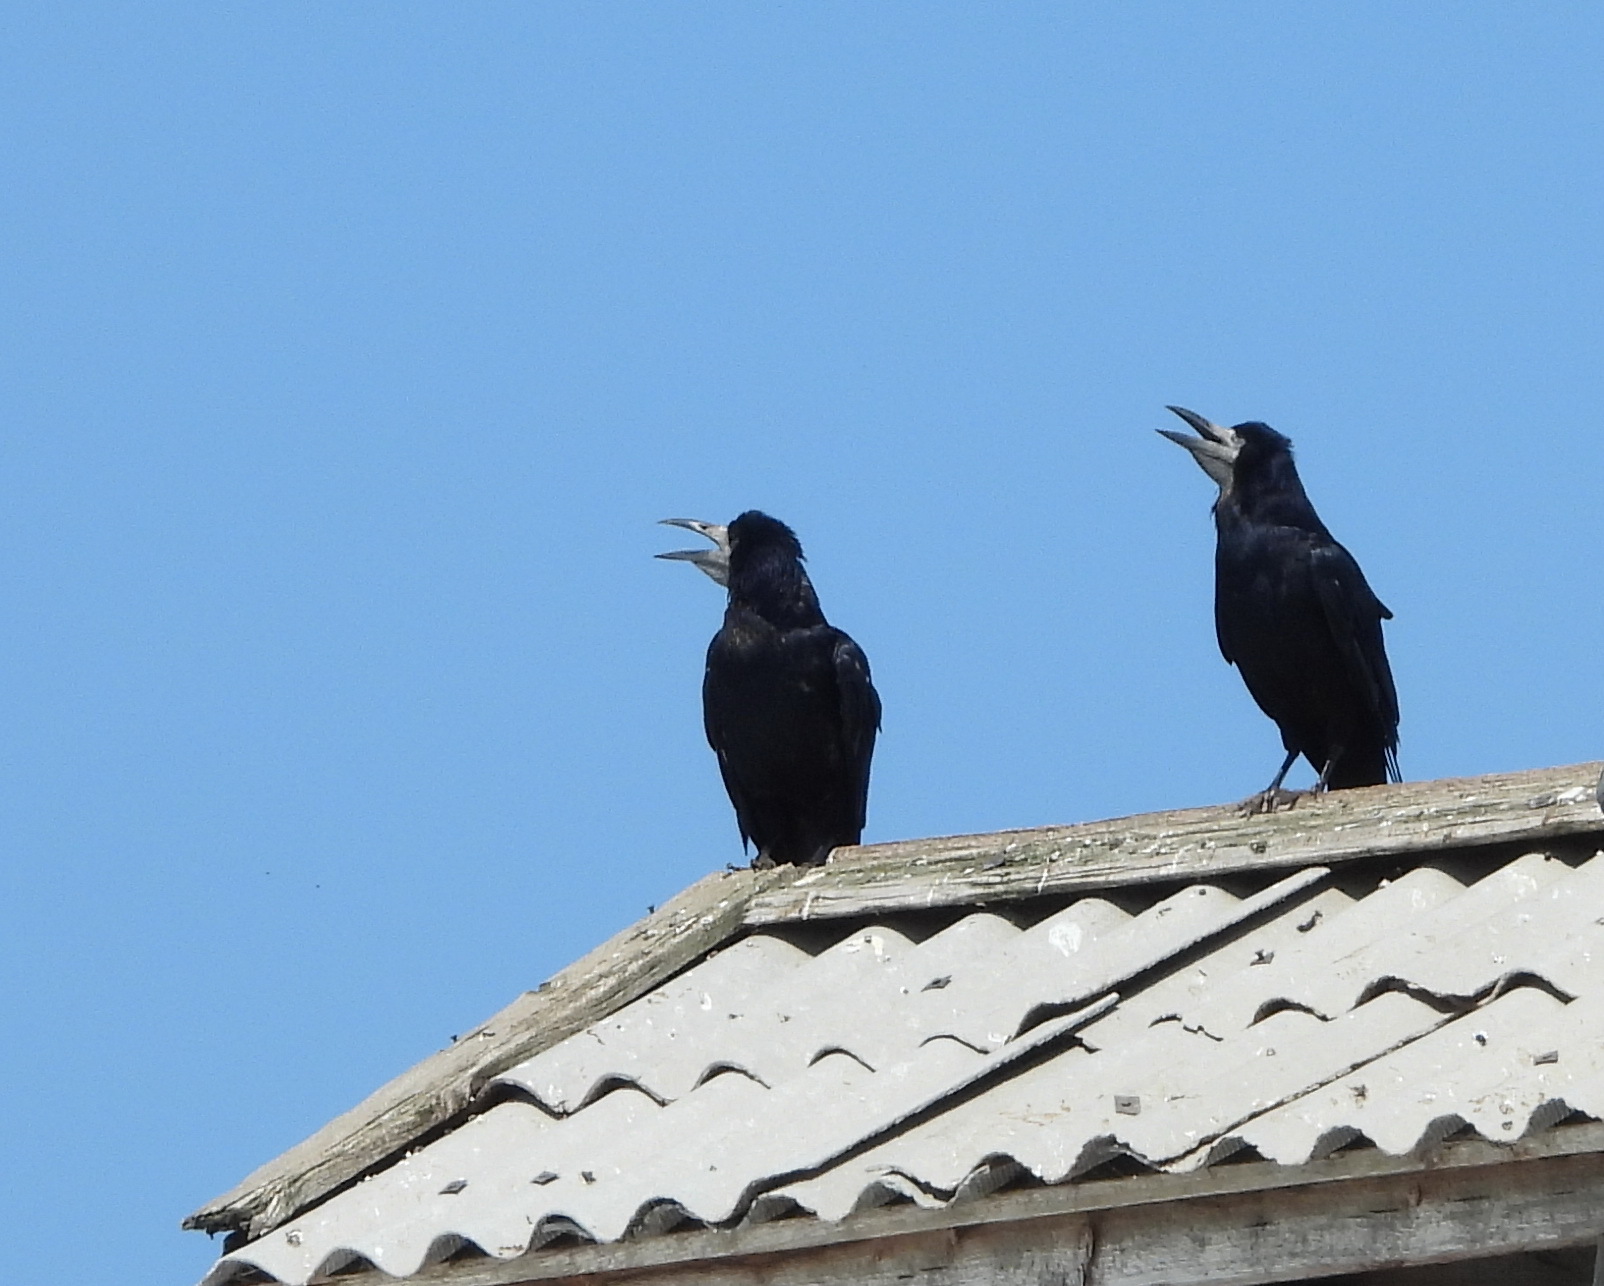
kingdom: Animalia
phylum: Chordata
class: Aves
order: Passeriformes
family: Corvidae
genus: Corvus
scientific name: Corvus frugilegus
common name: Rook
